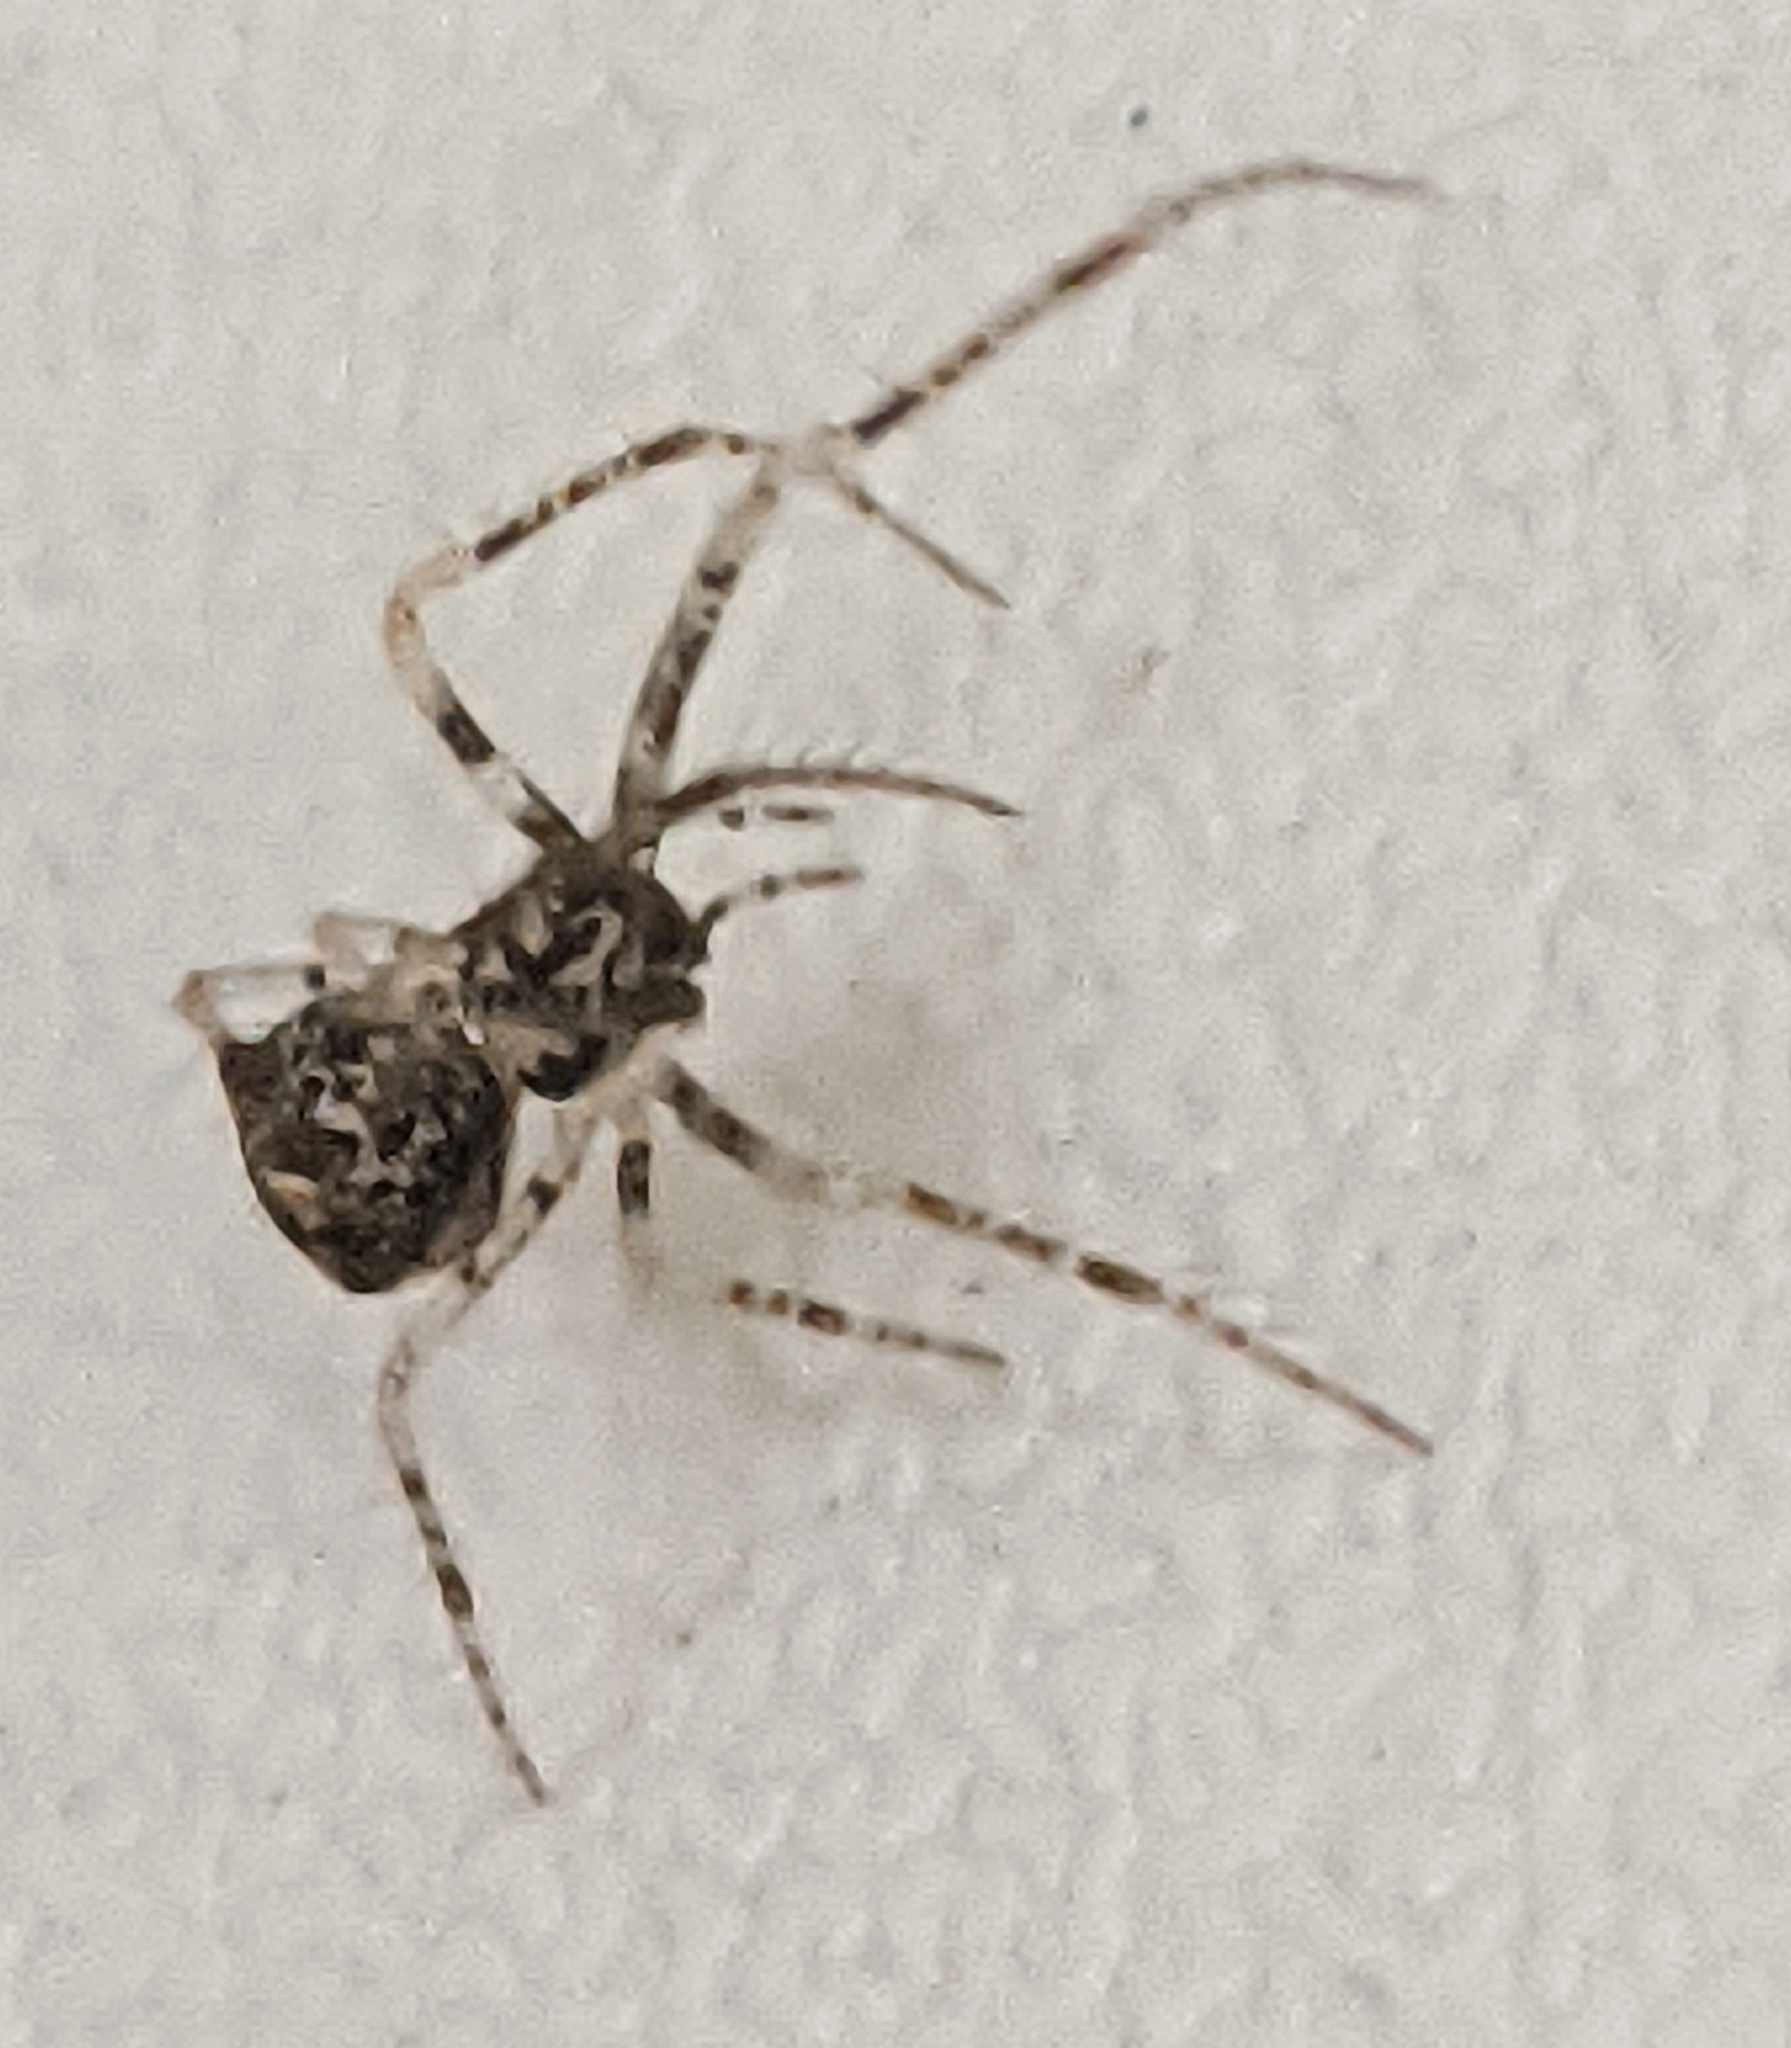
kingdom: Animalia
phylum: Arthropoda
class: Arachnida
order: Araneae
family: Mimetidae
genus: Ero
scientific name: Ero aphana
